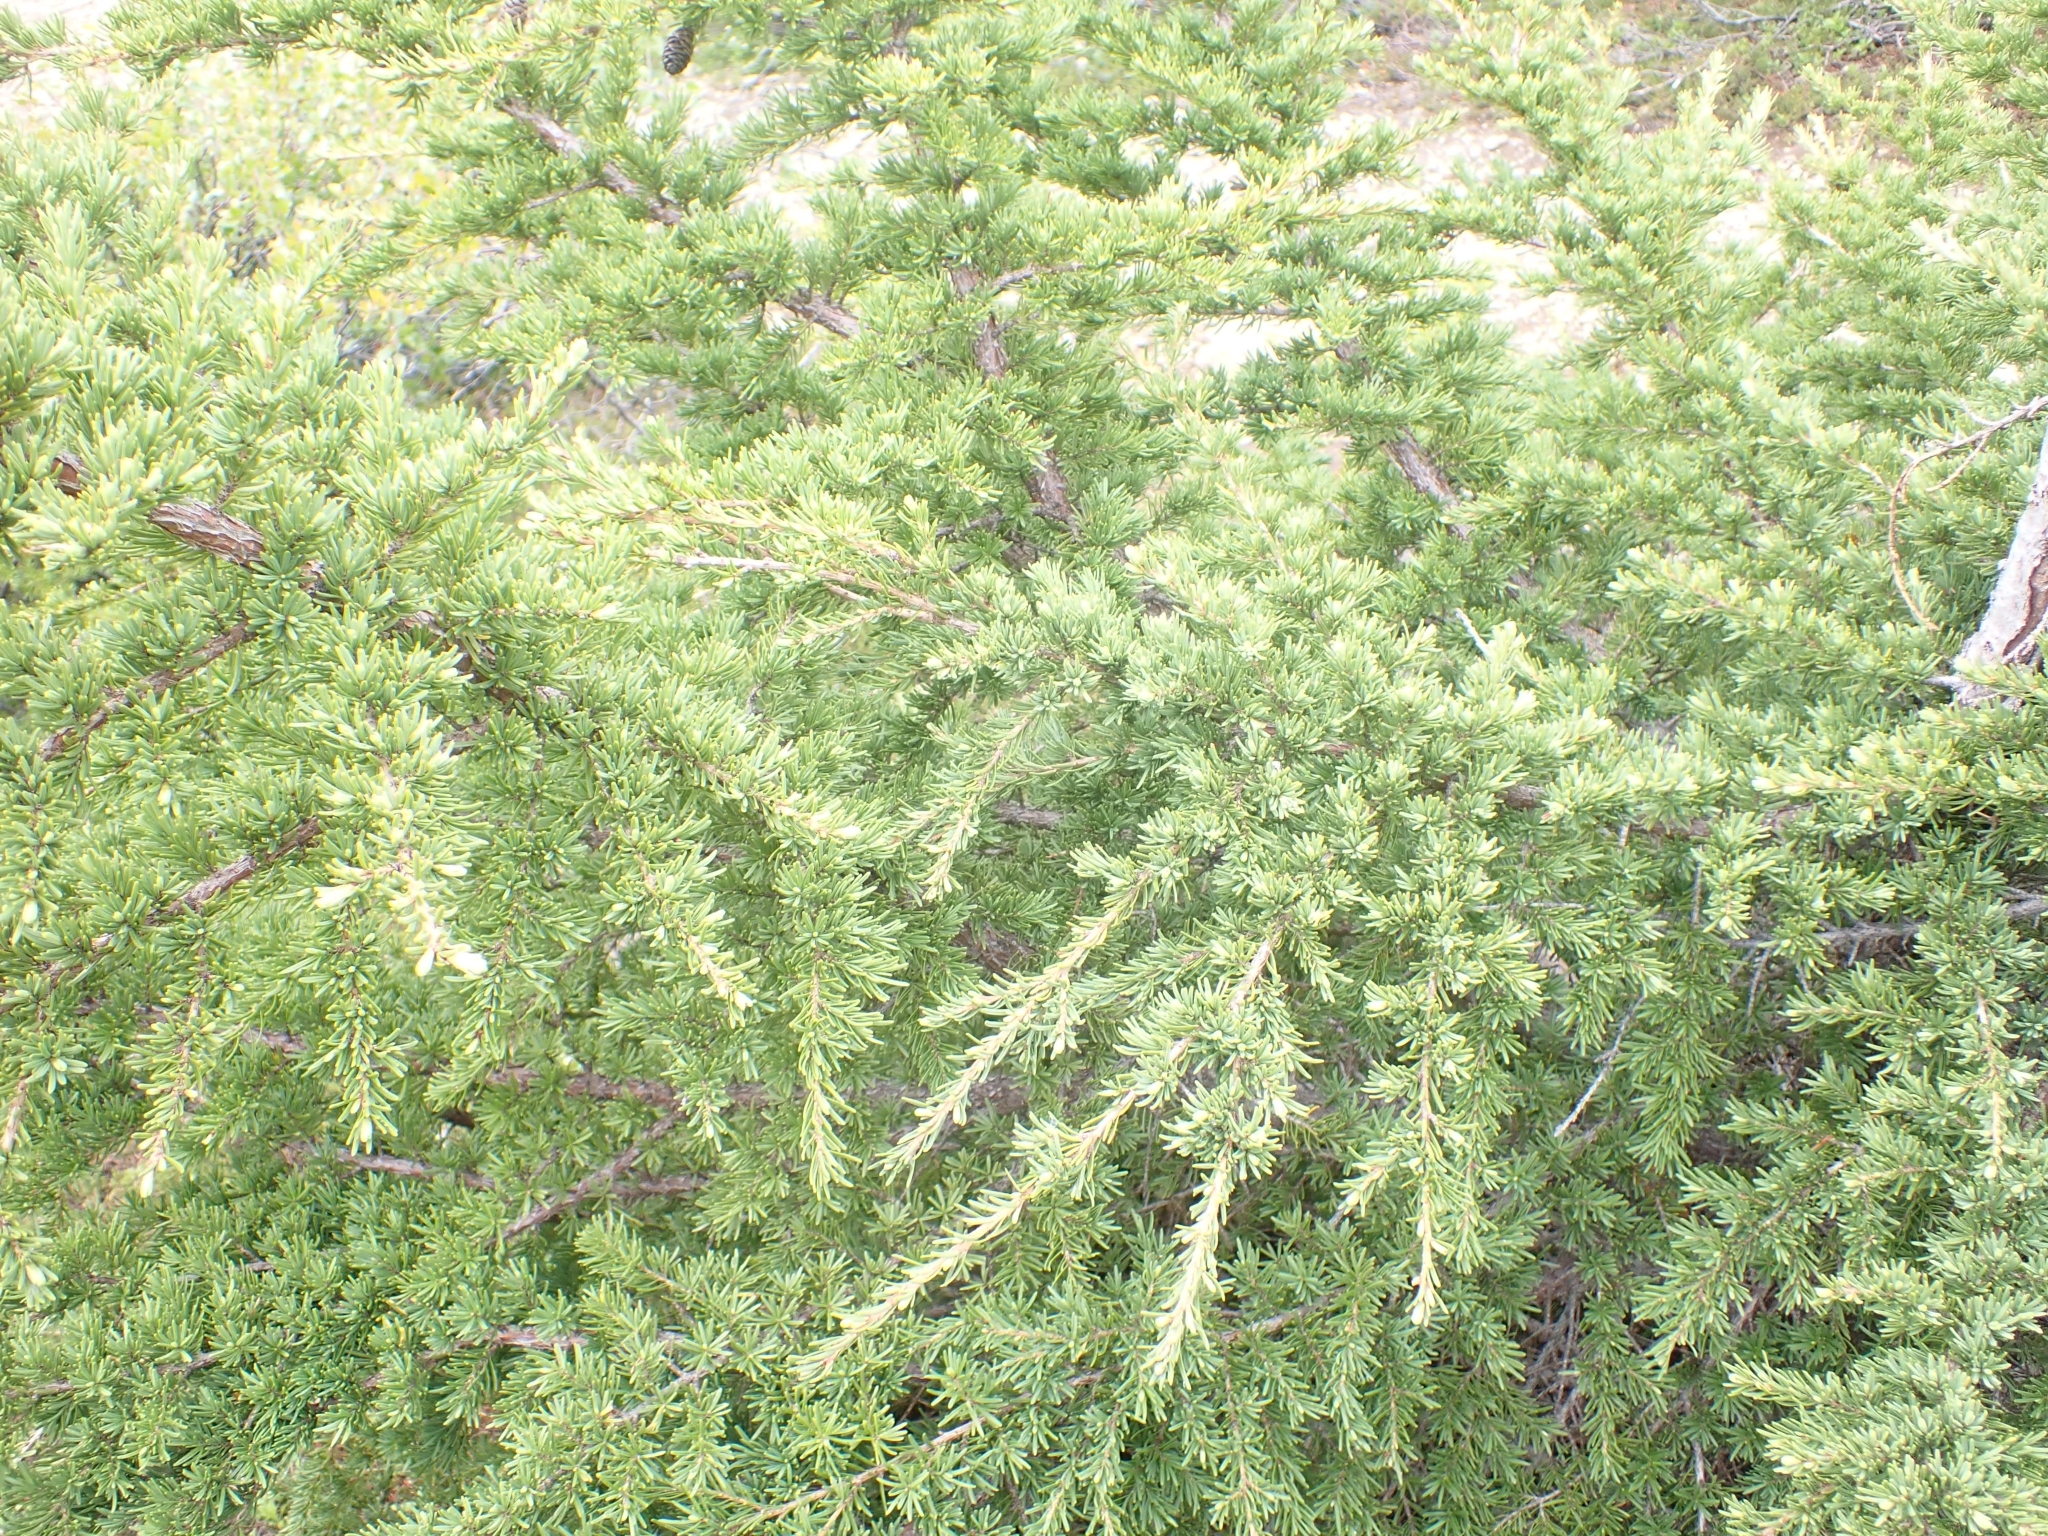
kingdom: Plantae
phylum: Tracheophyta
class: Pinopsida
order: Pinales
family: Pinaceae
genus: Tsuga
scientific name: Tsuga mertensiana
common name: Mountain hemlock
